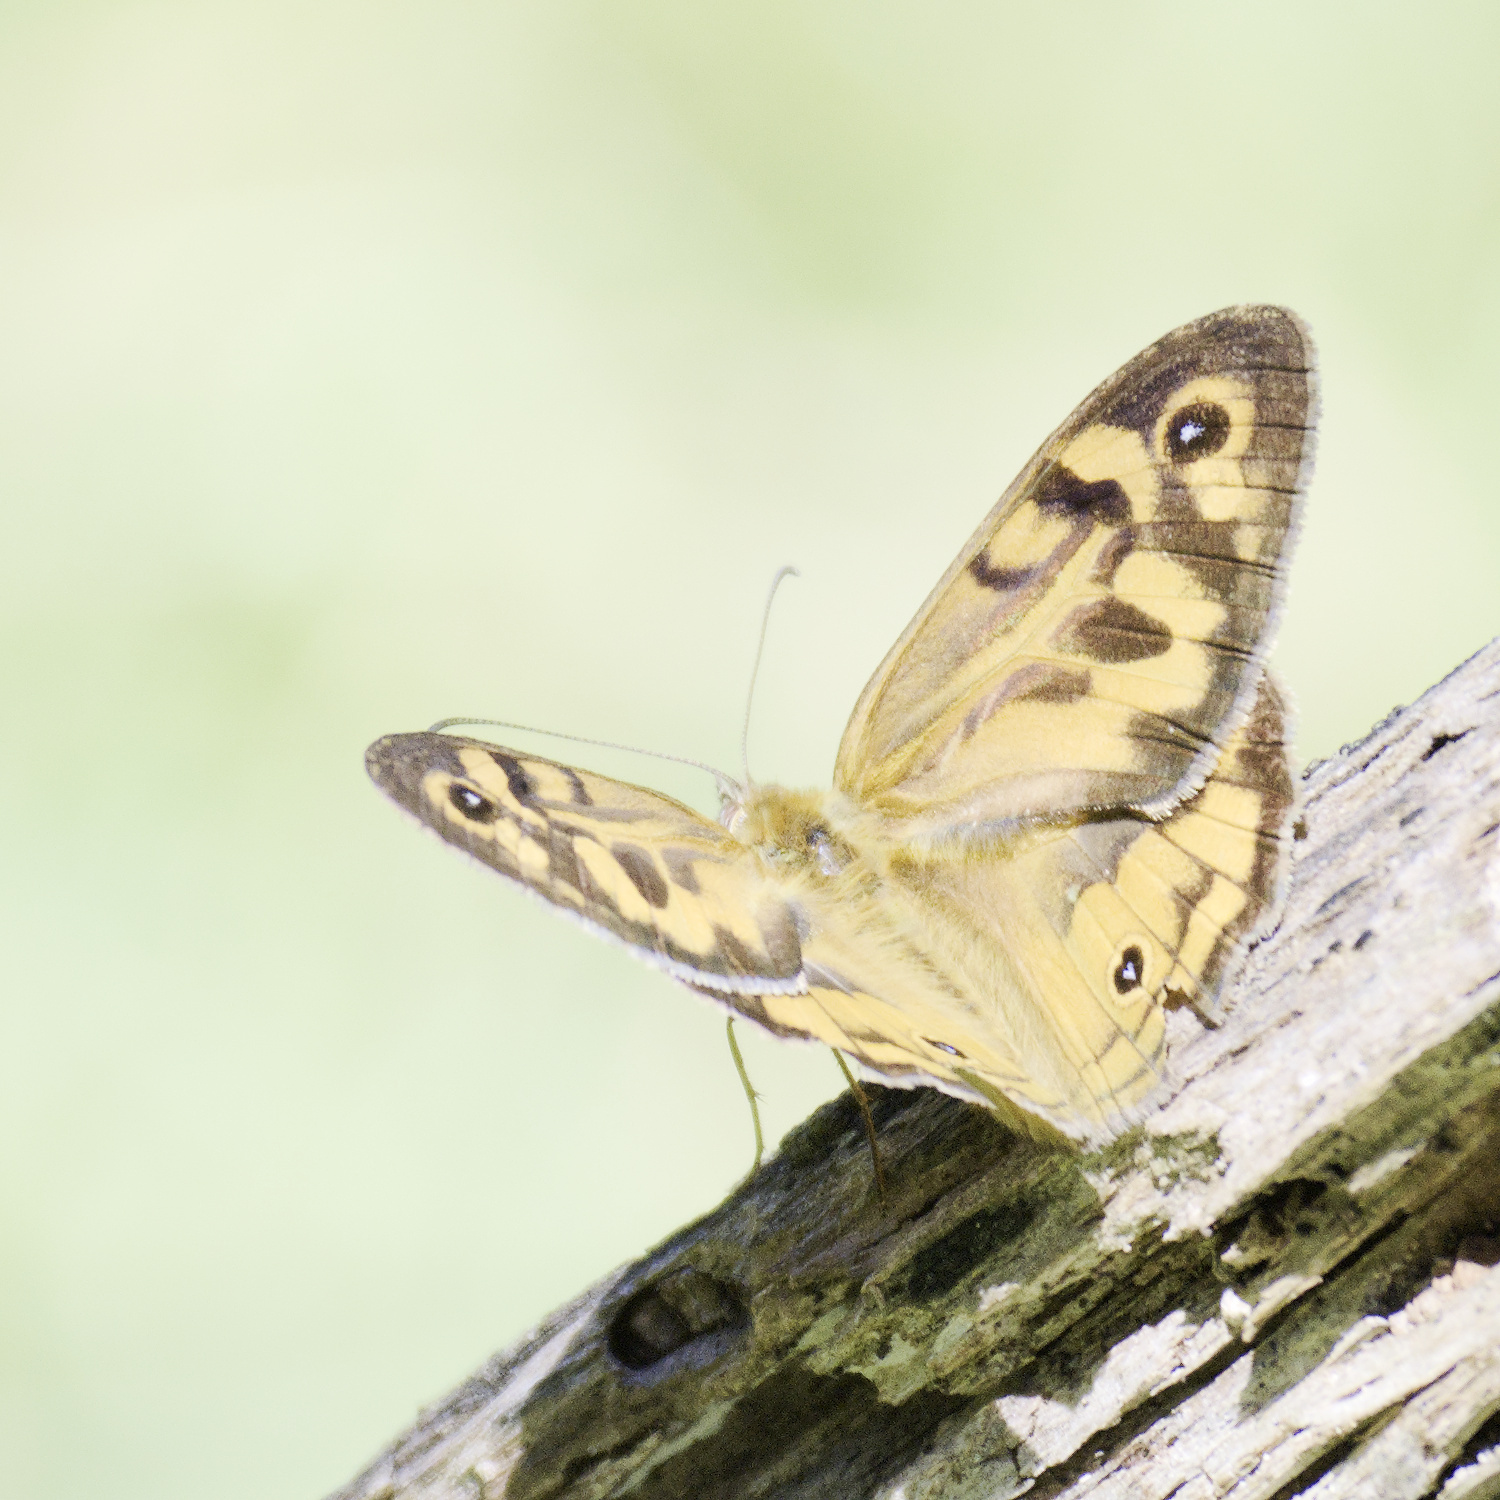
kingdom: Animalia
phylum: Arthropoda
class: Insecta
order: Lepidoptera
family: Nymphalidae
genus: Heteronympha
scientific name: Heteronympha merope
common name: Common brown
